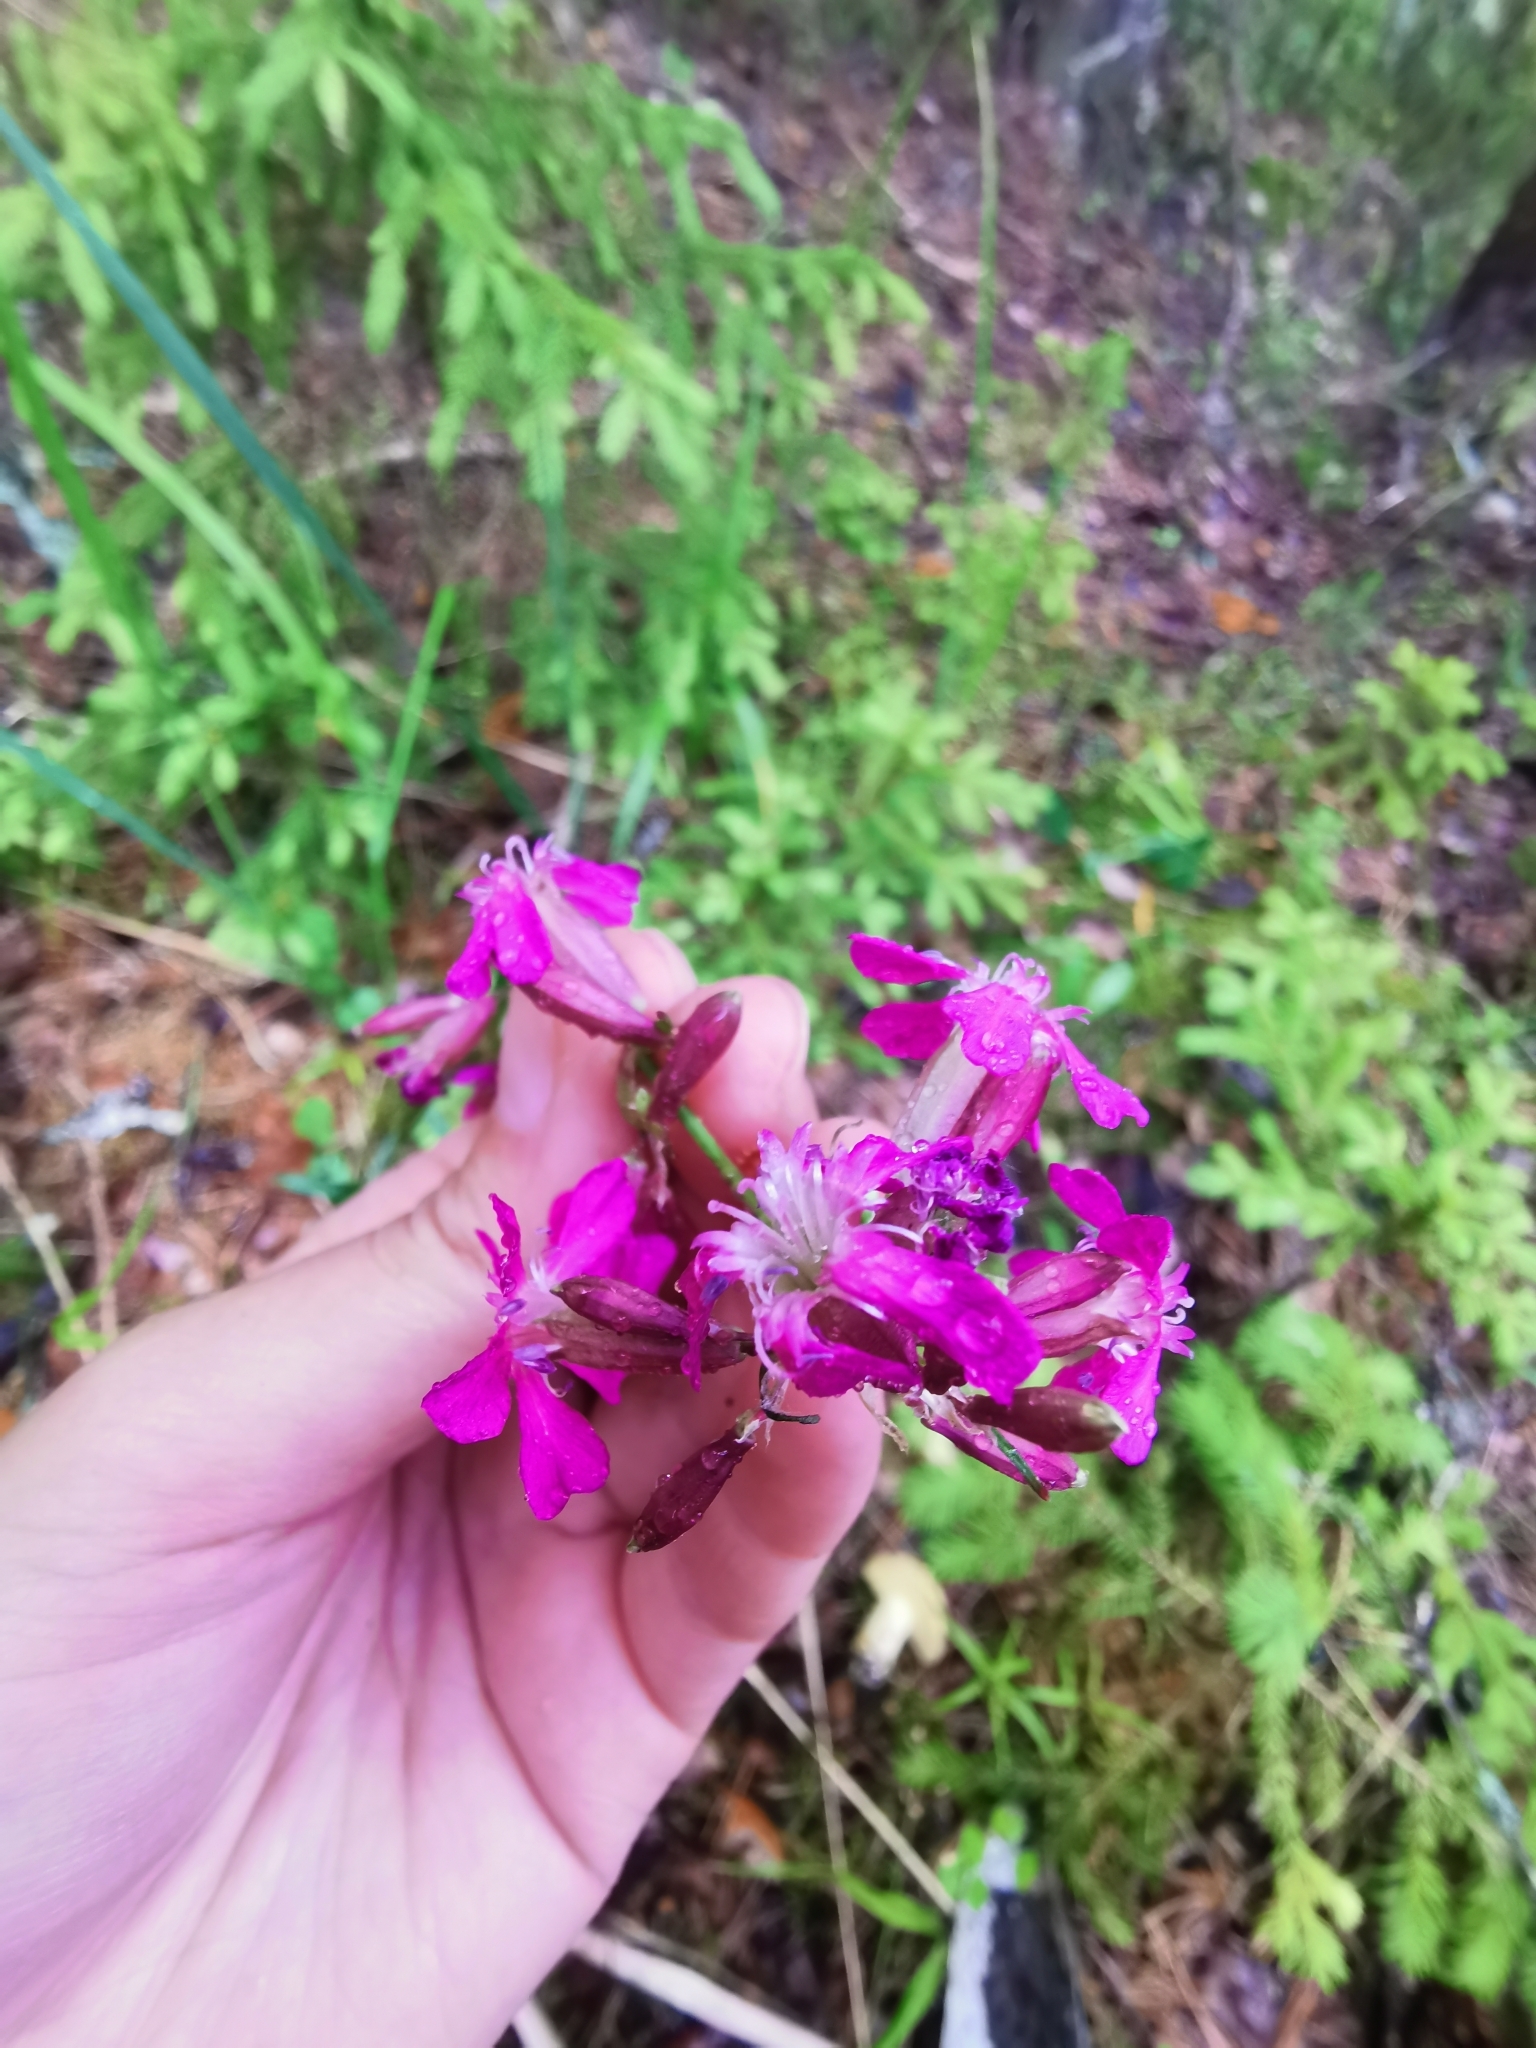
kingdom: Plantae
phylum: Tracheophyta
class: Magnoliopsida
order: Caryophyllales
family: Caryophyllaceae
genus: Viscaria
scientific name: Viscaria vulgaris
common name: Clammy campion
